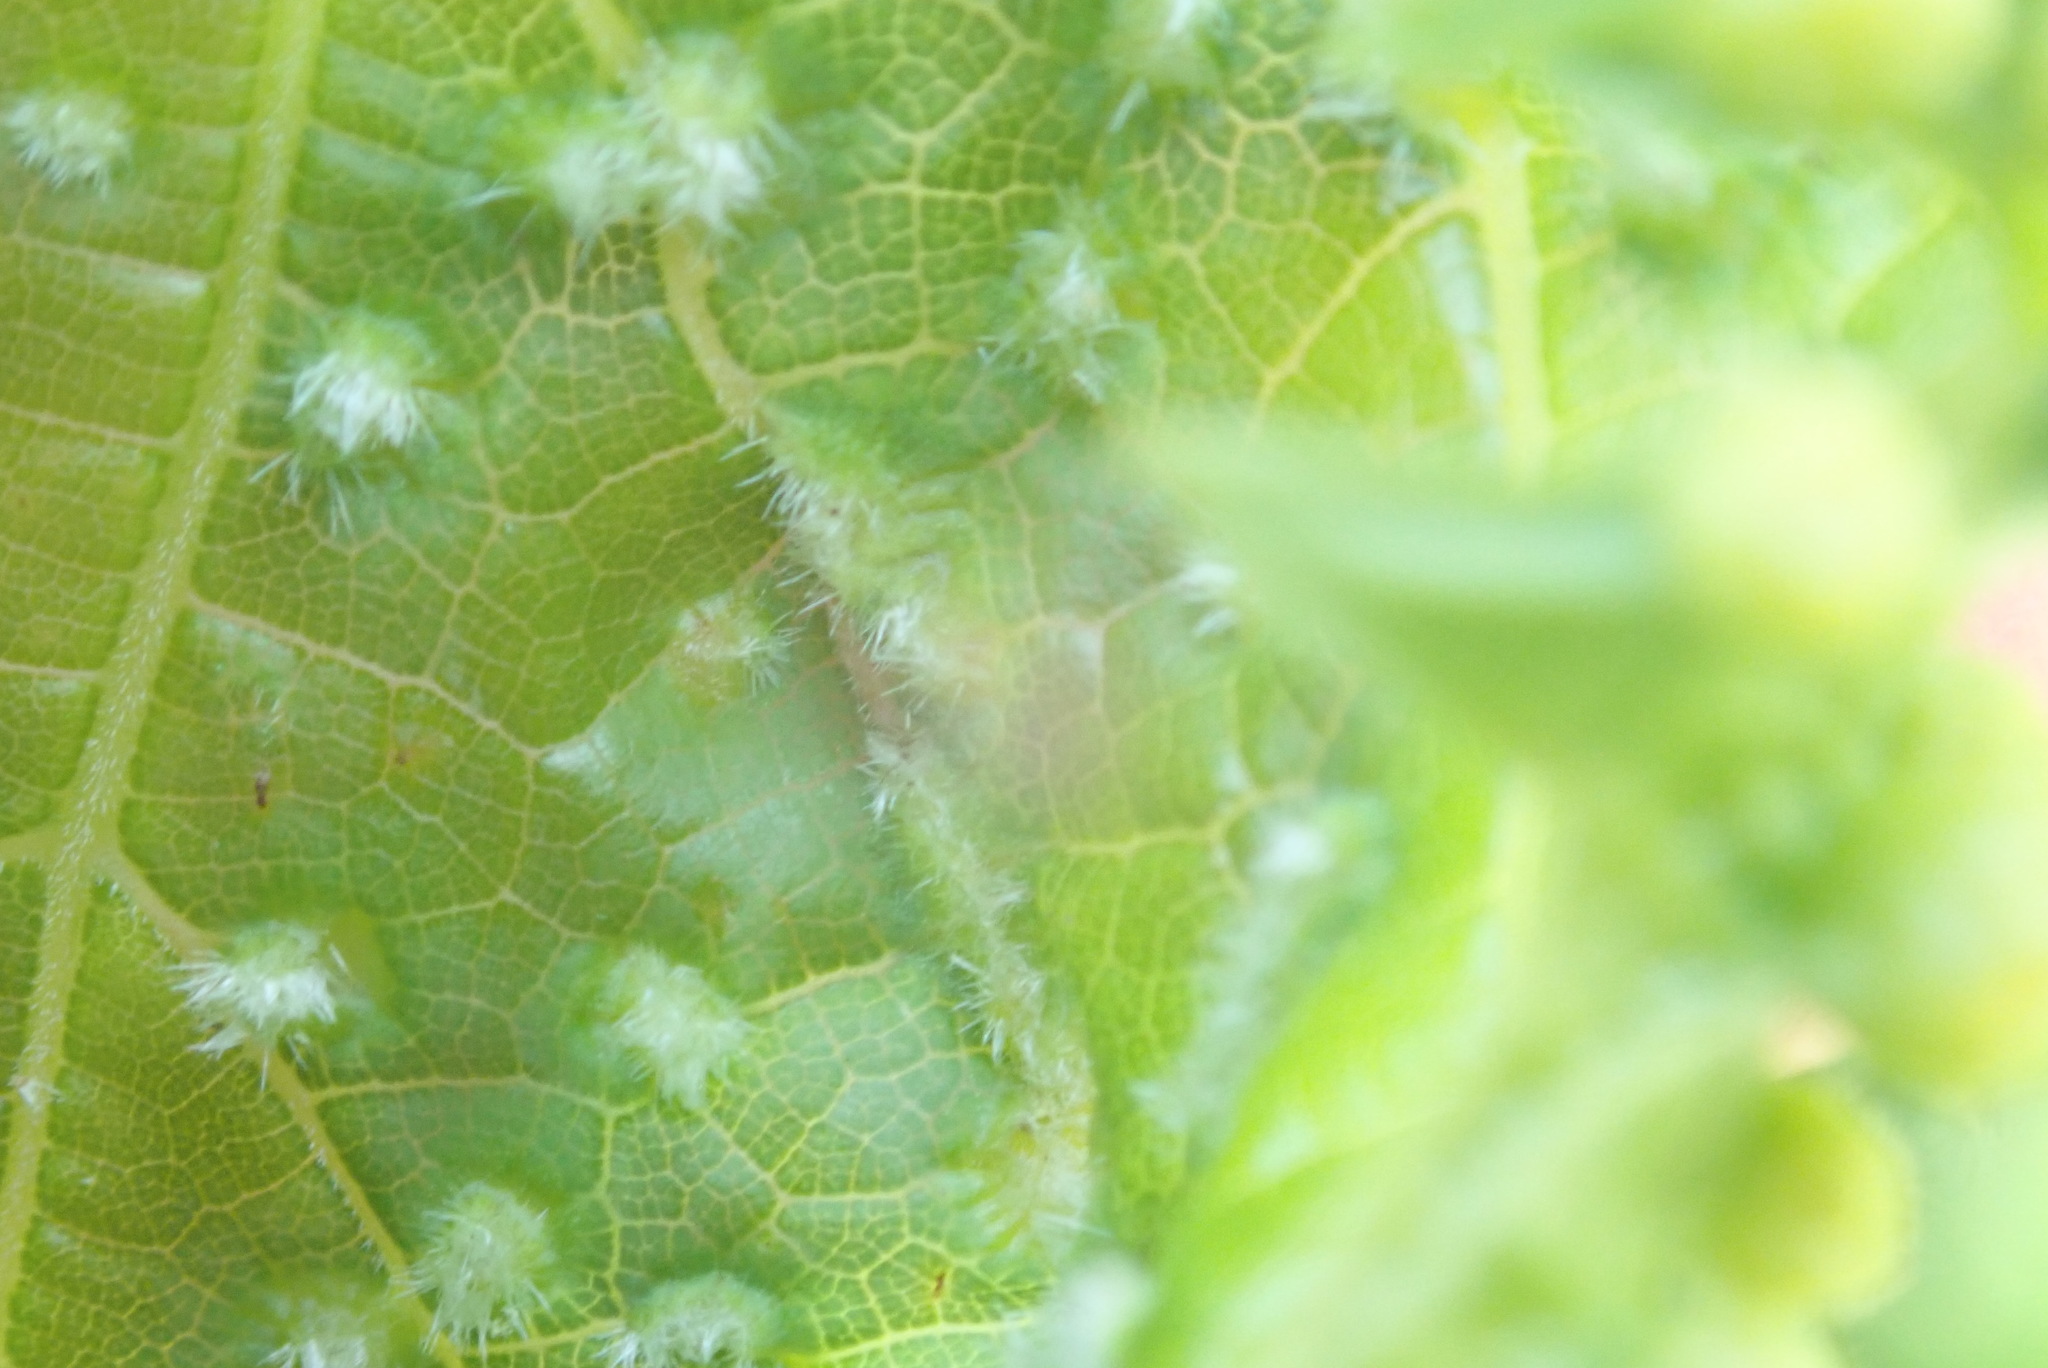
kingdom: Animalia
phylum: Arthropoda
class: Insecta
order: Hemiptera
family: Phylloxeridae
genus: Daktulosphaira
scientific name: Daktulosphaira vitifoliae
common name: Grape phylloxera
